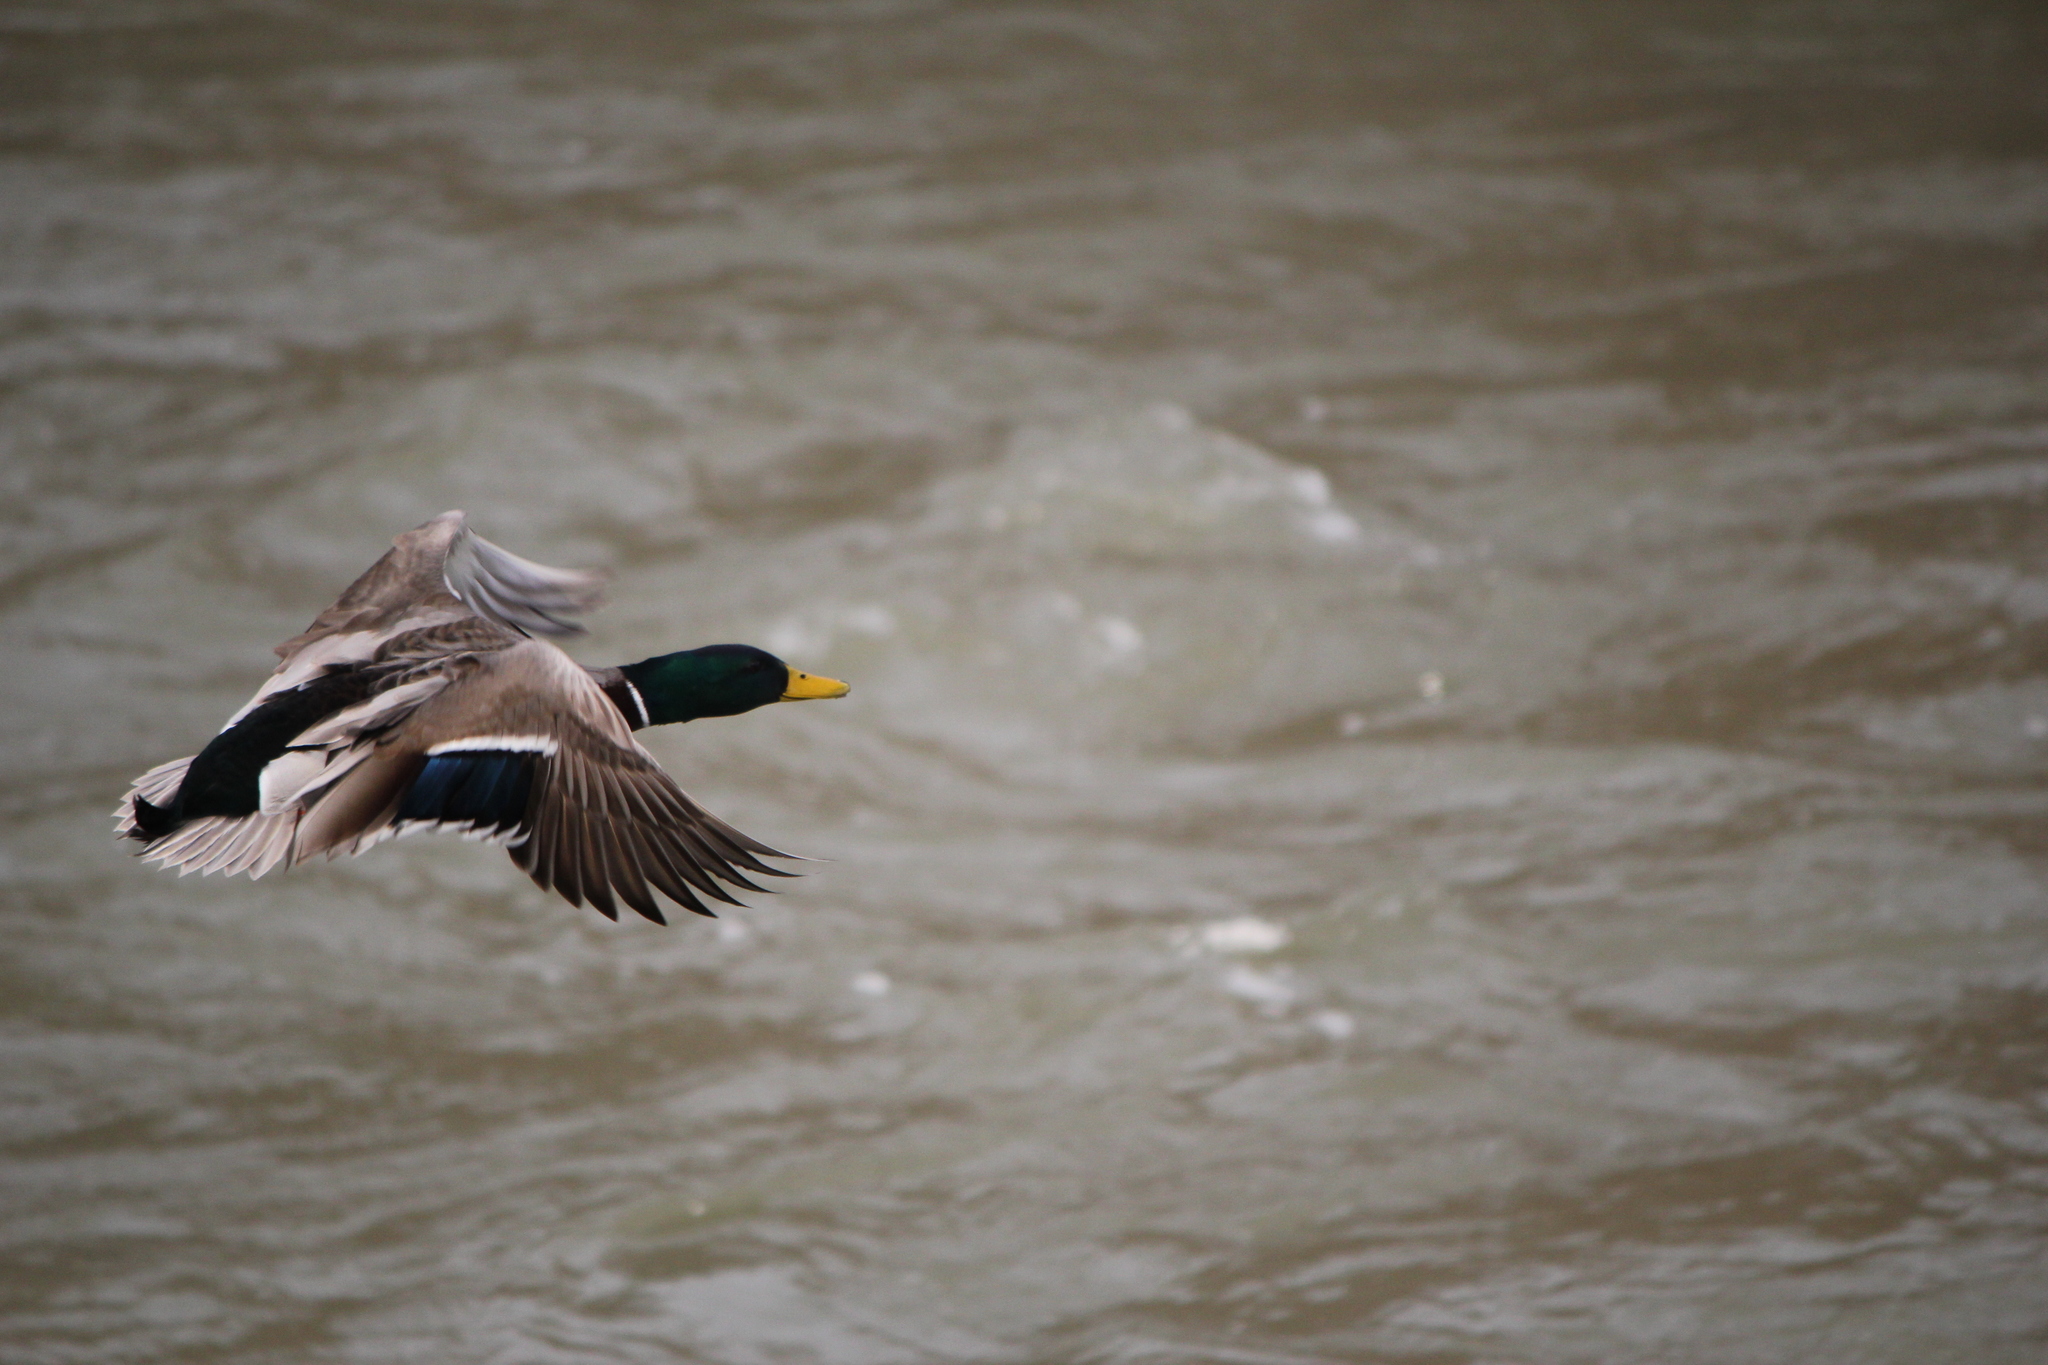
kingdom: Animalia
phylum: Chordata
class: Aves
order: Anseriformes
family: Anatidae
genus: Anas
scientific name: Anas platyrhynchos
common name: Mallard
